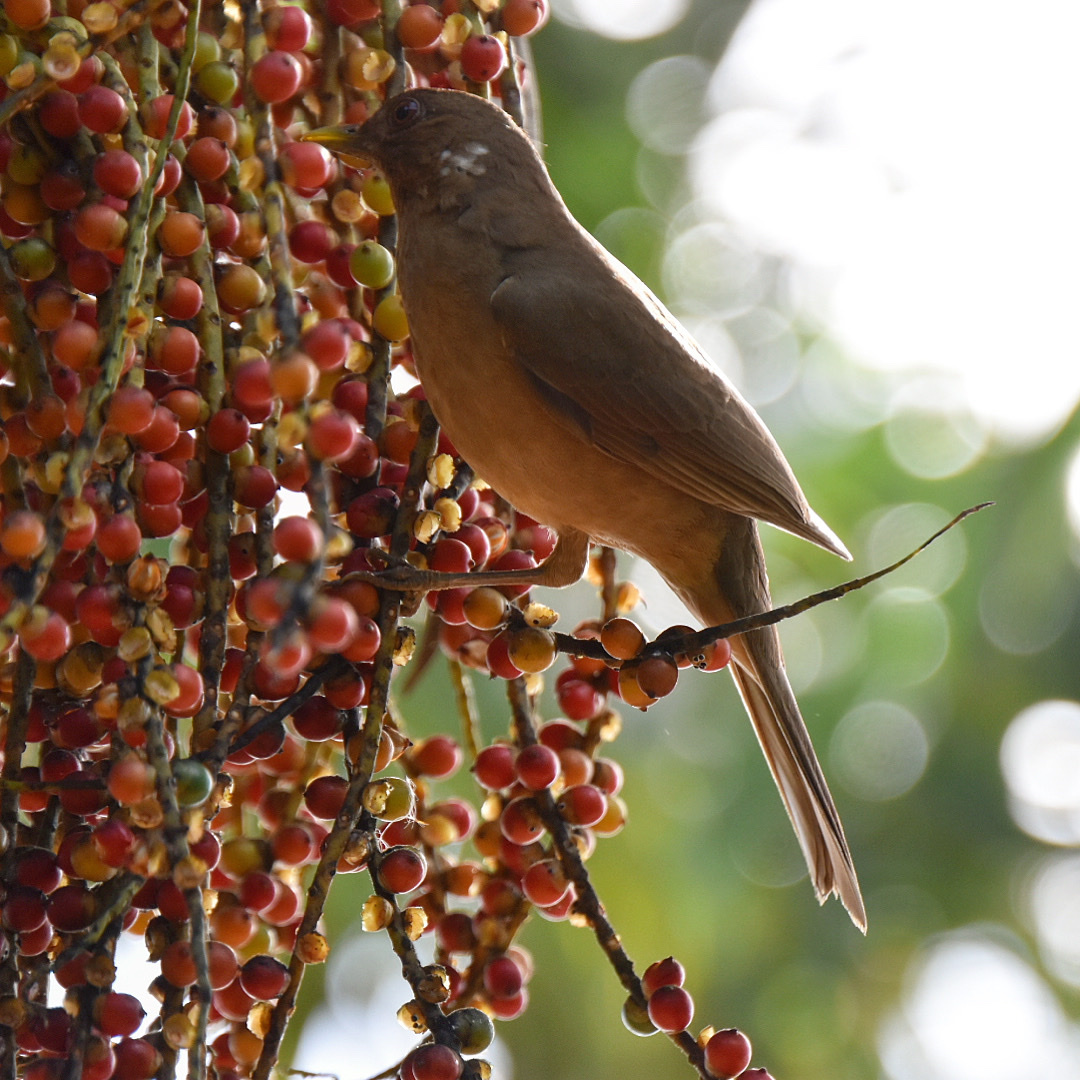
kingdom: Animalia
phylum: Chordata
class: Aves
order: Passeriformes
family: Turdidae
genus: Turdus
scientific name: Turdus grayi
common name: Clay-colored thrush
